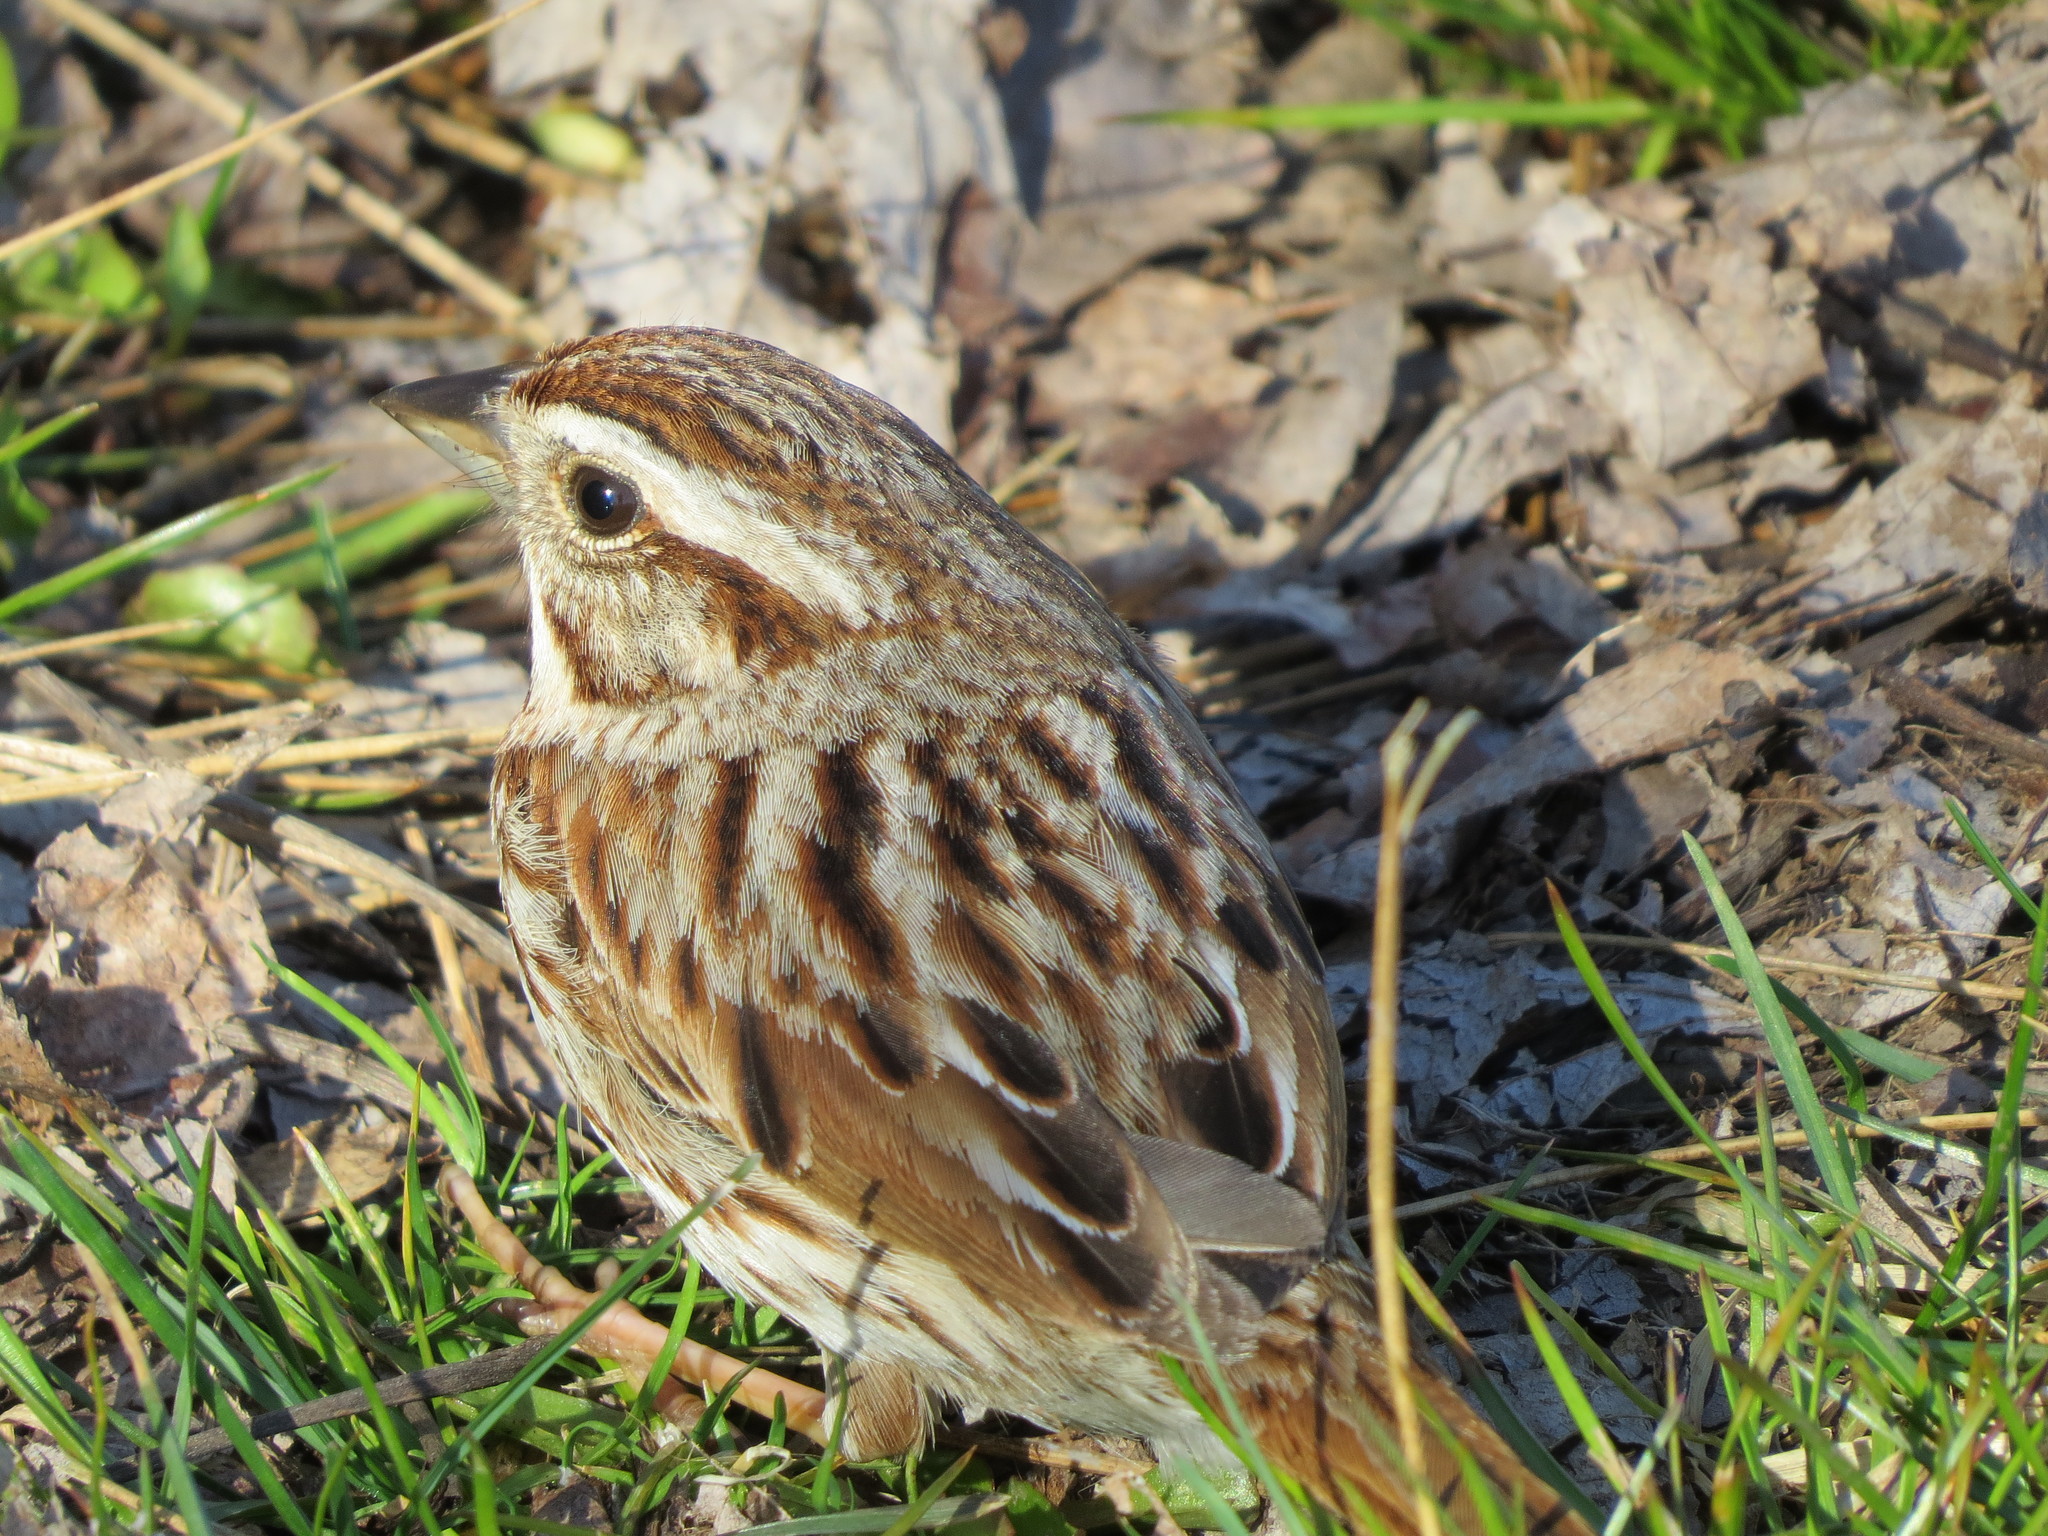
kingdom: Animalia
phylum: Chordata
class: Aves
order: Passeriformes
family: Passerellidae
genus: Melospiza
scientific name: Melospiza melodia
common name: Song sparrow
